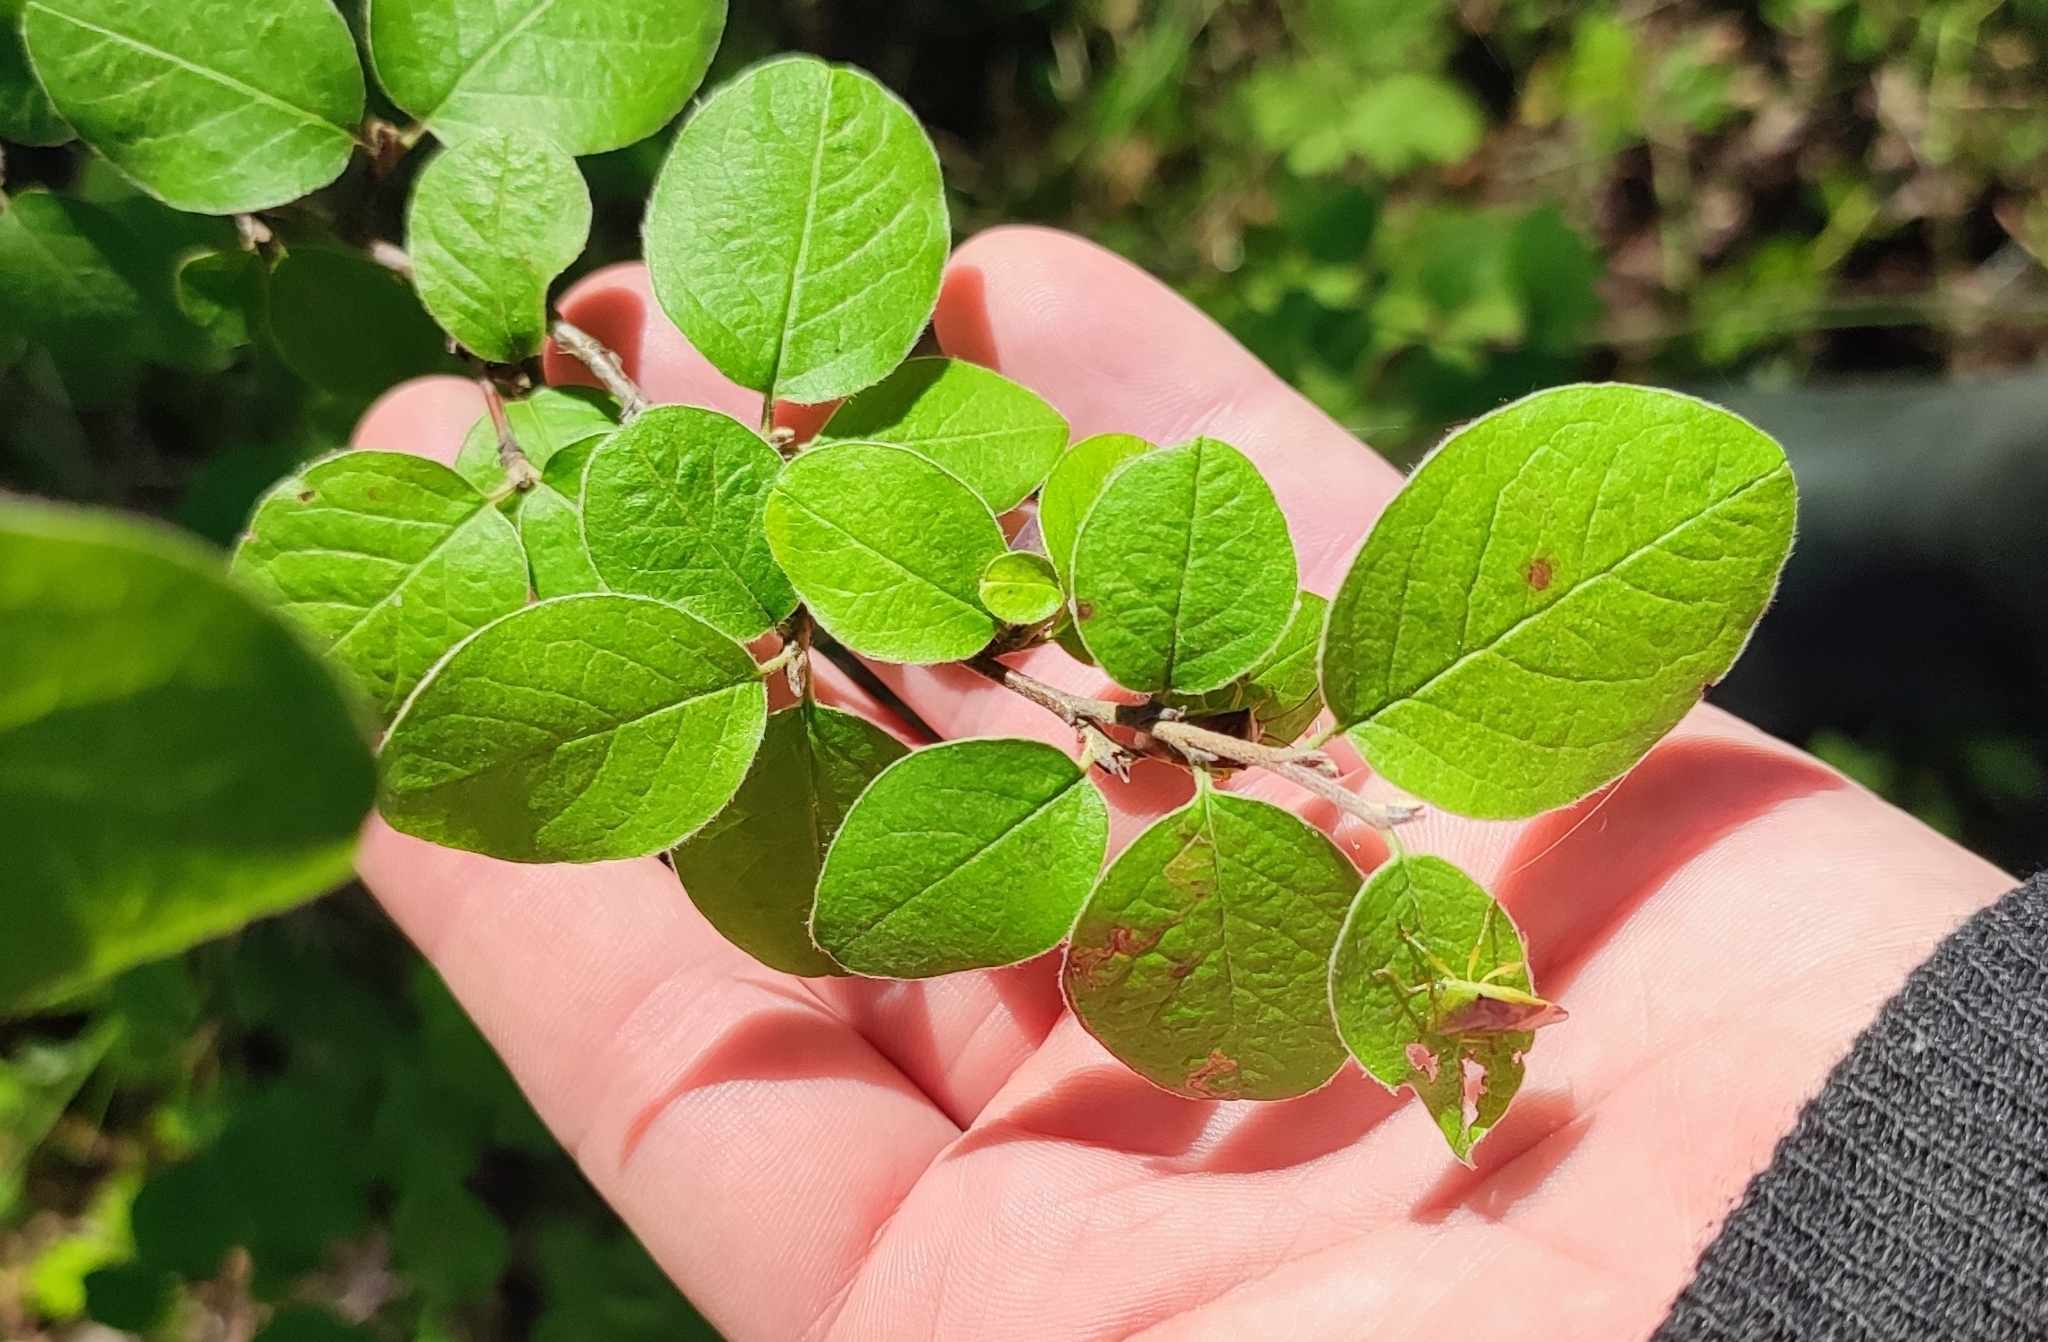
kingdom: Plantae
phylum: Tracheophyta
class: Magnoliopsida
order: Rosales
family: Rosaceae
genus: Cotoneaster
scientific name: Cotoneaster melanocarpus
